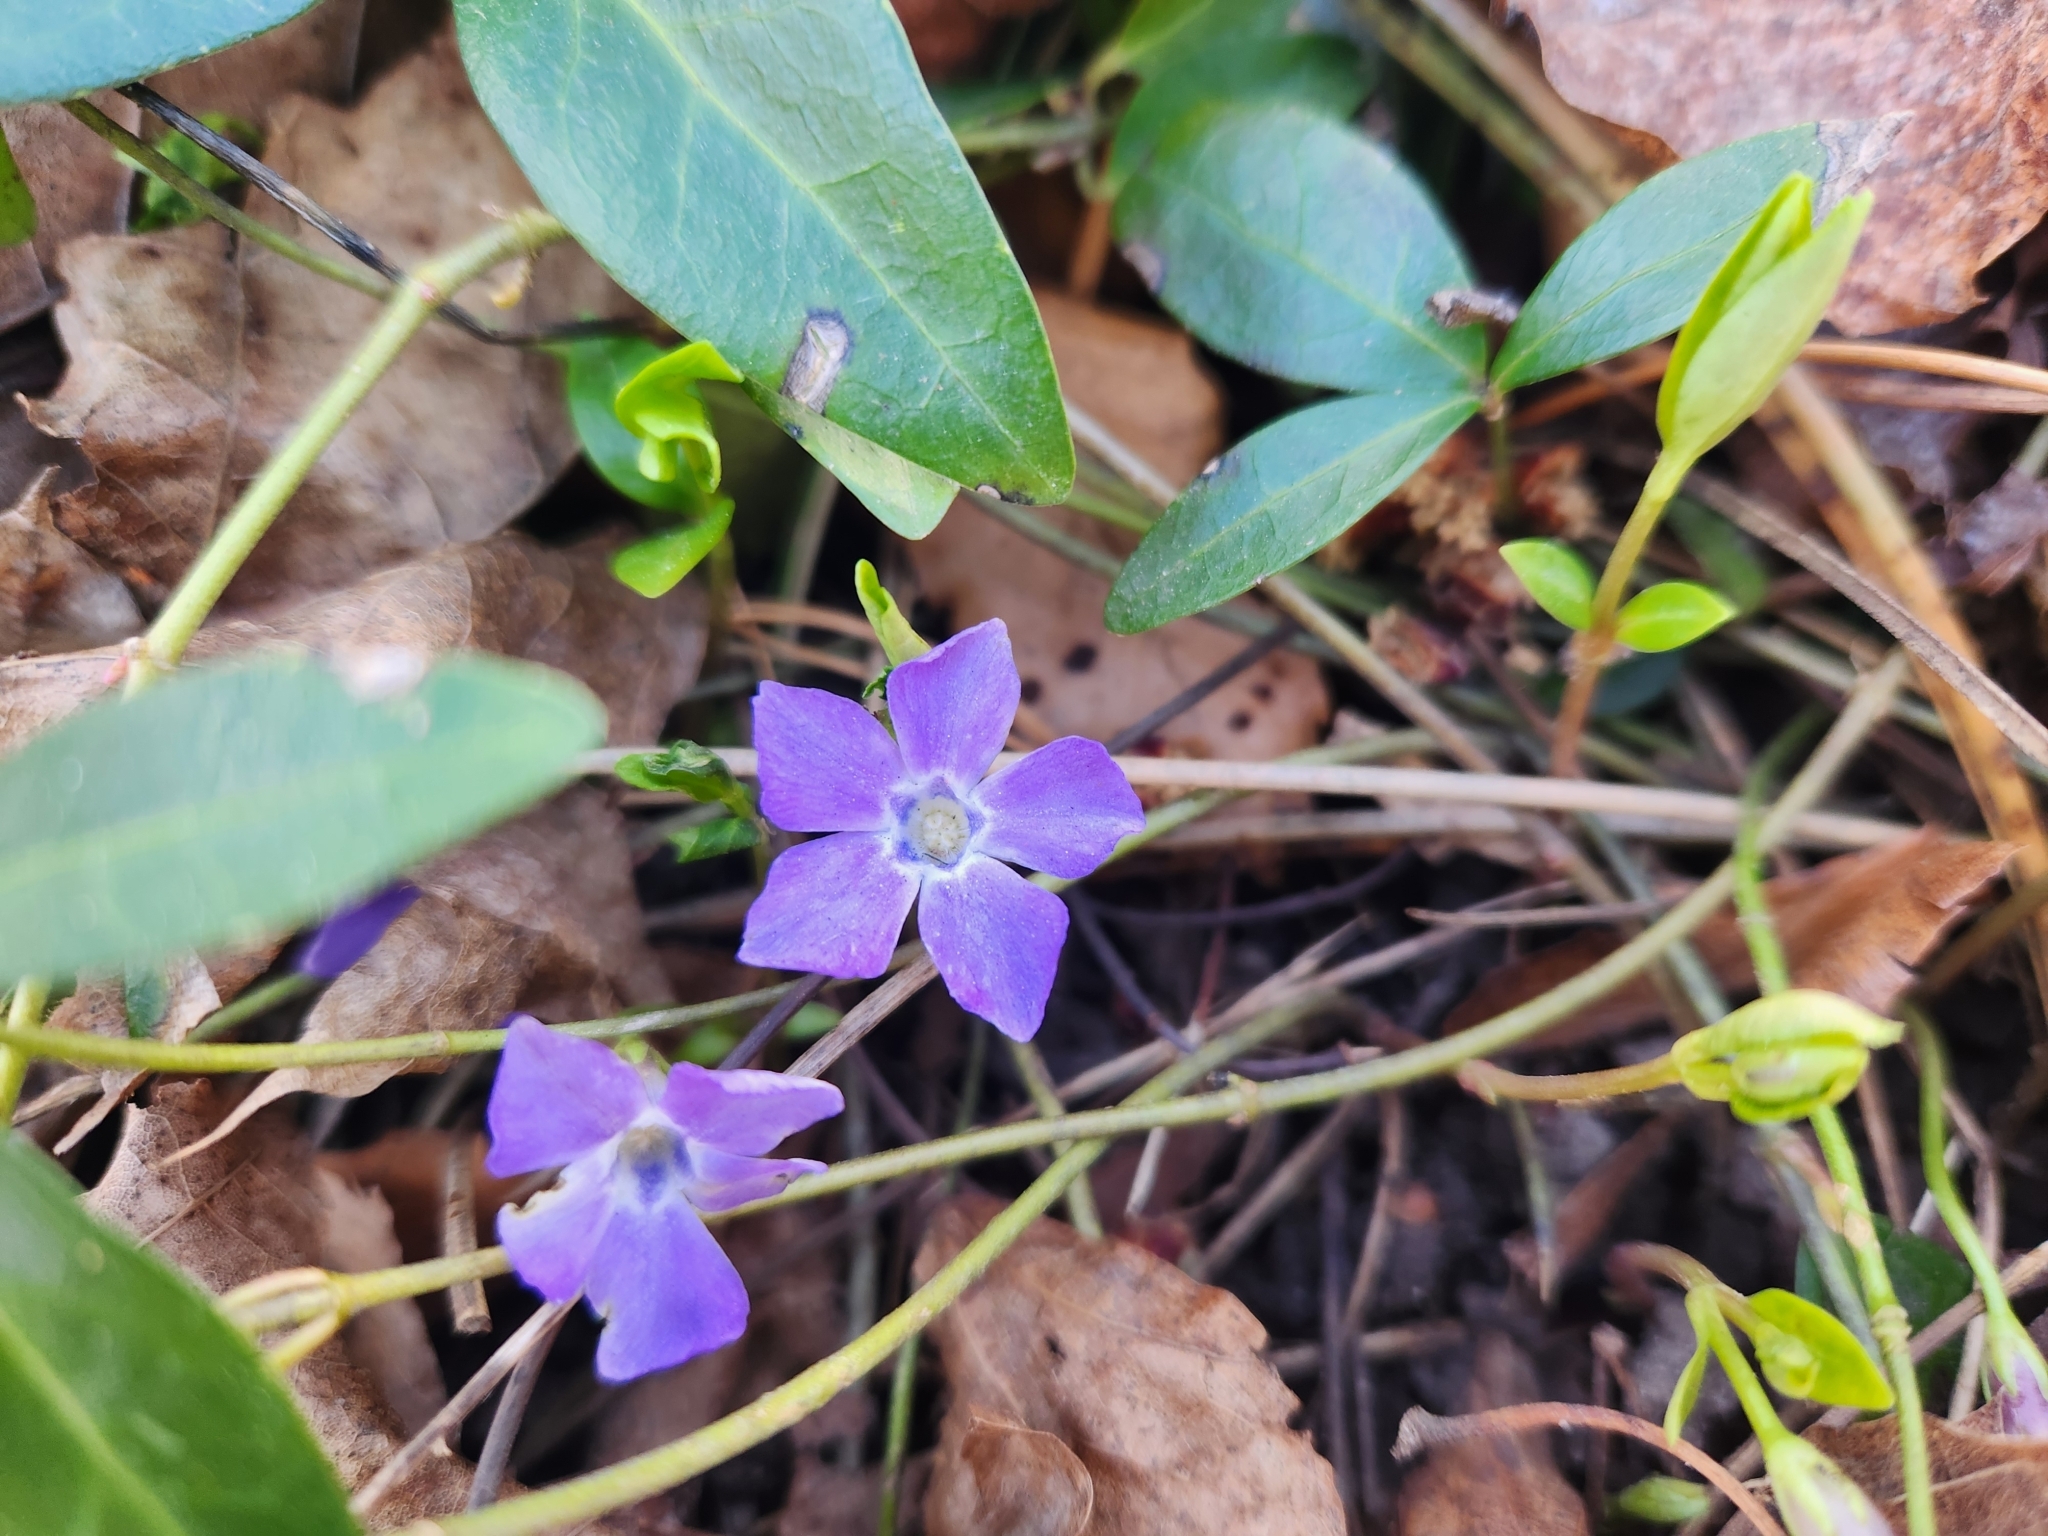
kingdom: Plantae
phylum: Tracheophyta
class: Magnoliopsida
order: Gentianales
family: Apocynaceae
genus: Vinca
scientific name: Vinca minor
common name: Lesser periwinkle
